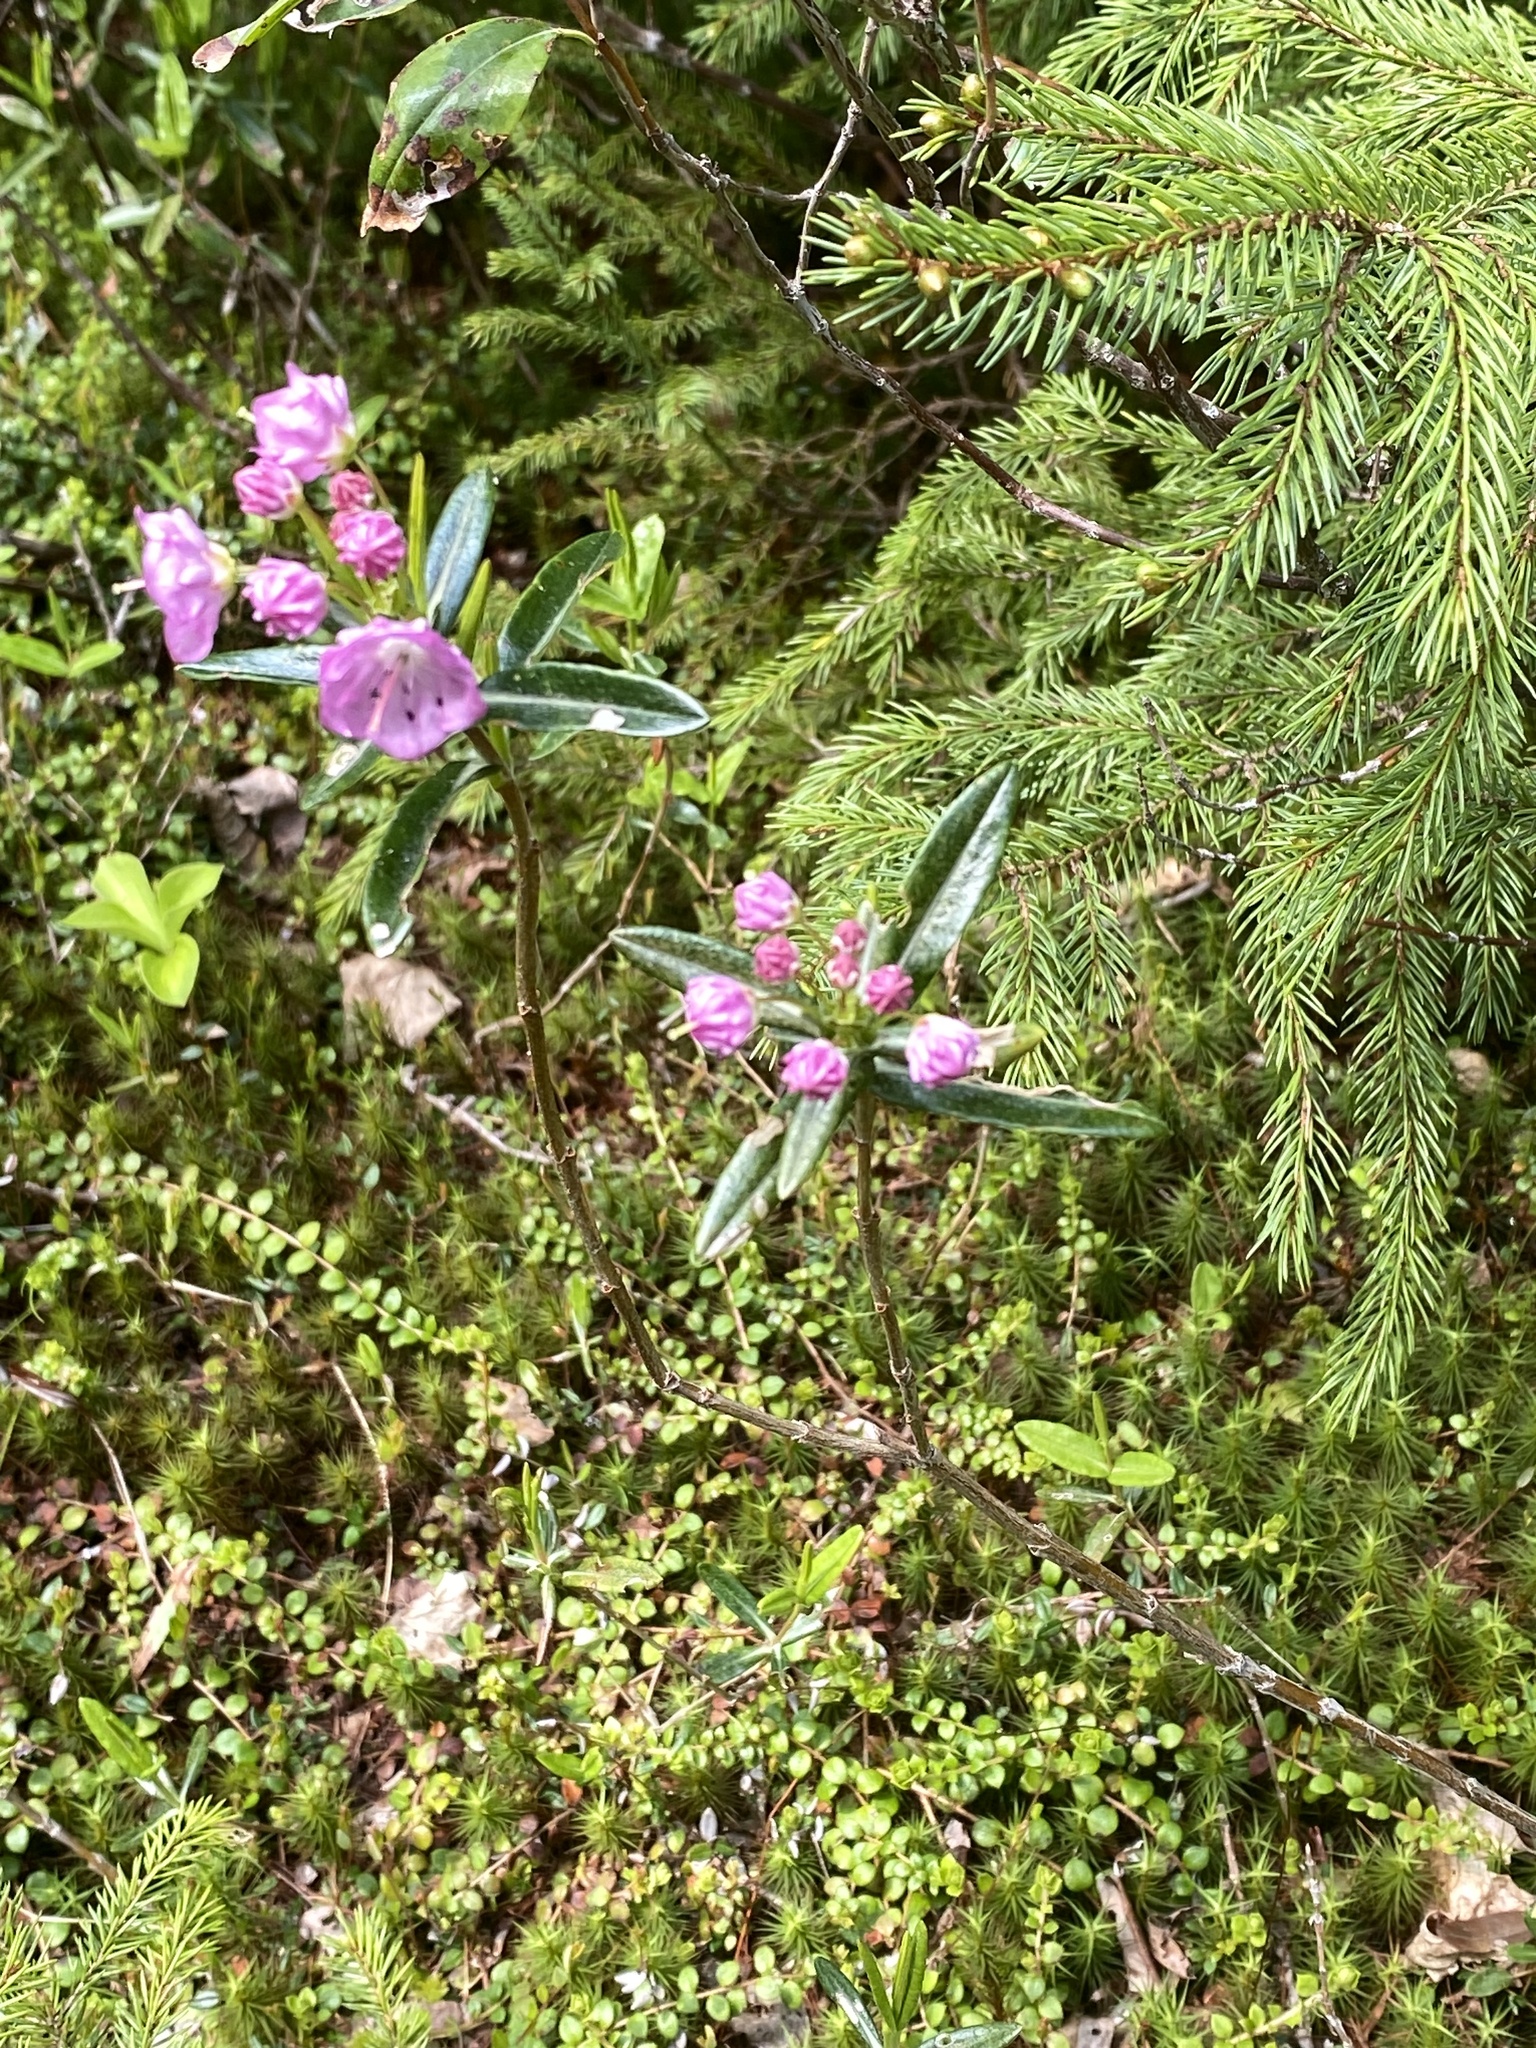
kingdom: Plantae
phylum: Tracheophyta
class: Magnoliopsida
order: Ericales
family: Ericaceae
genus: Kalmia
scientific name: Kalmia polifolia
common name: Bog-laurel
